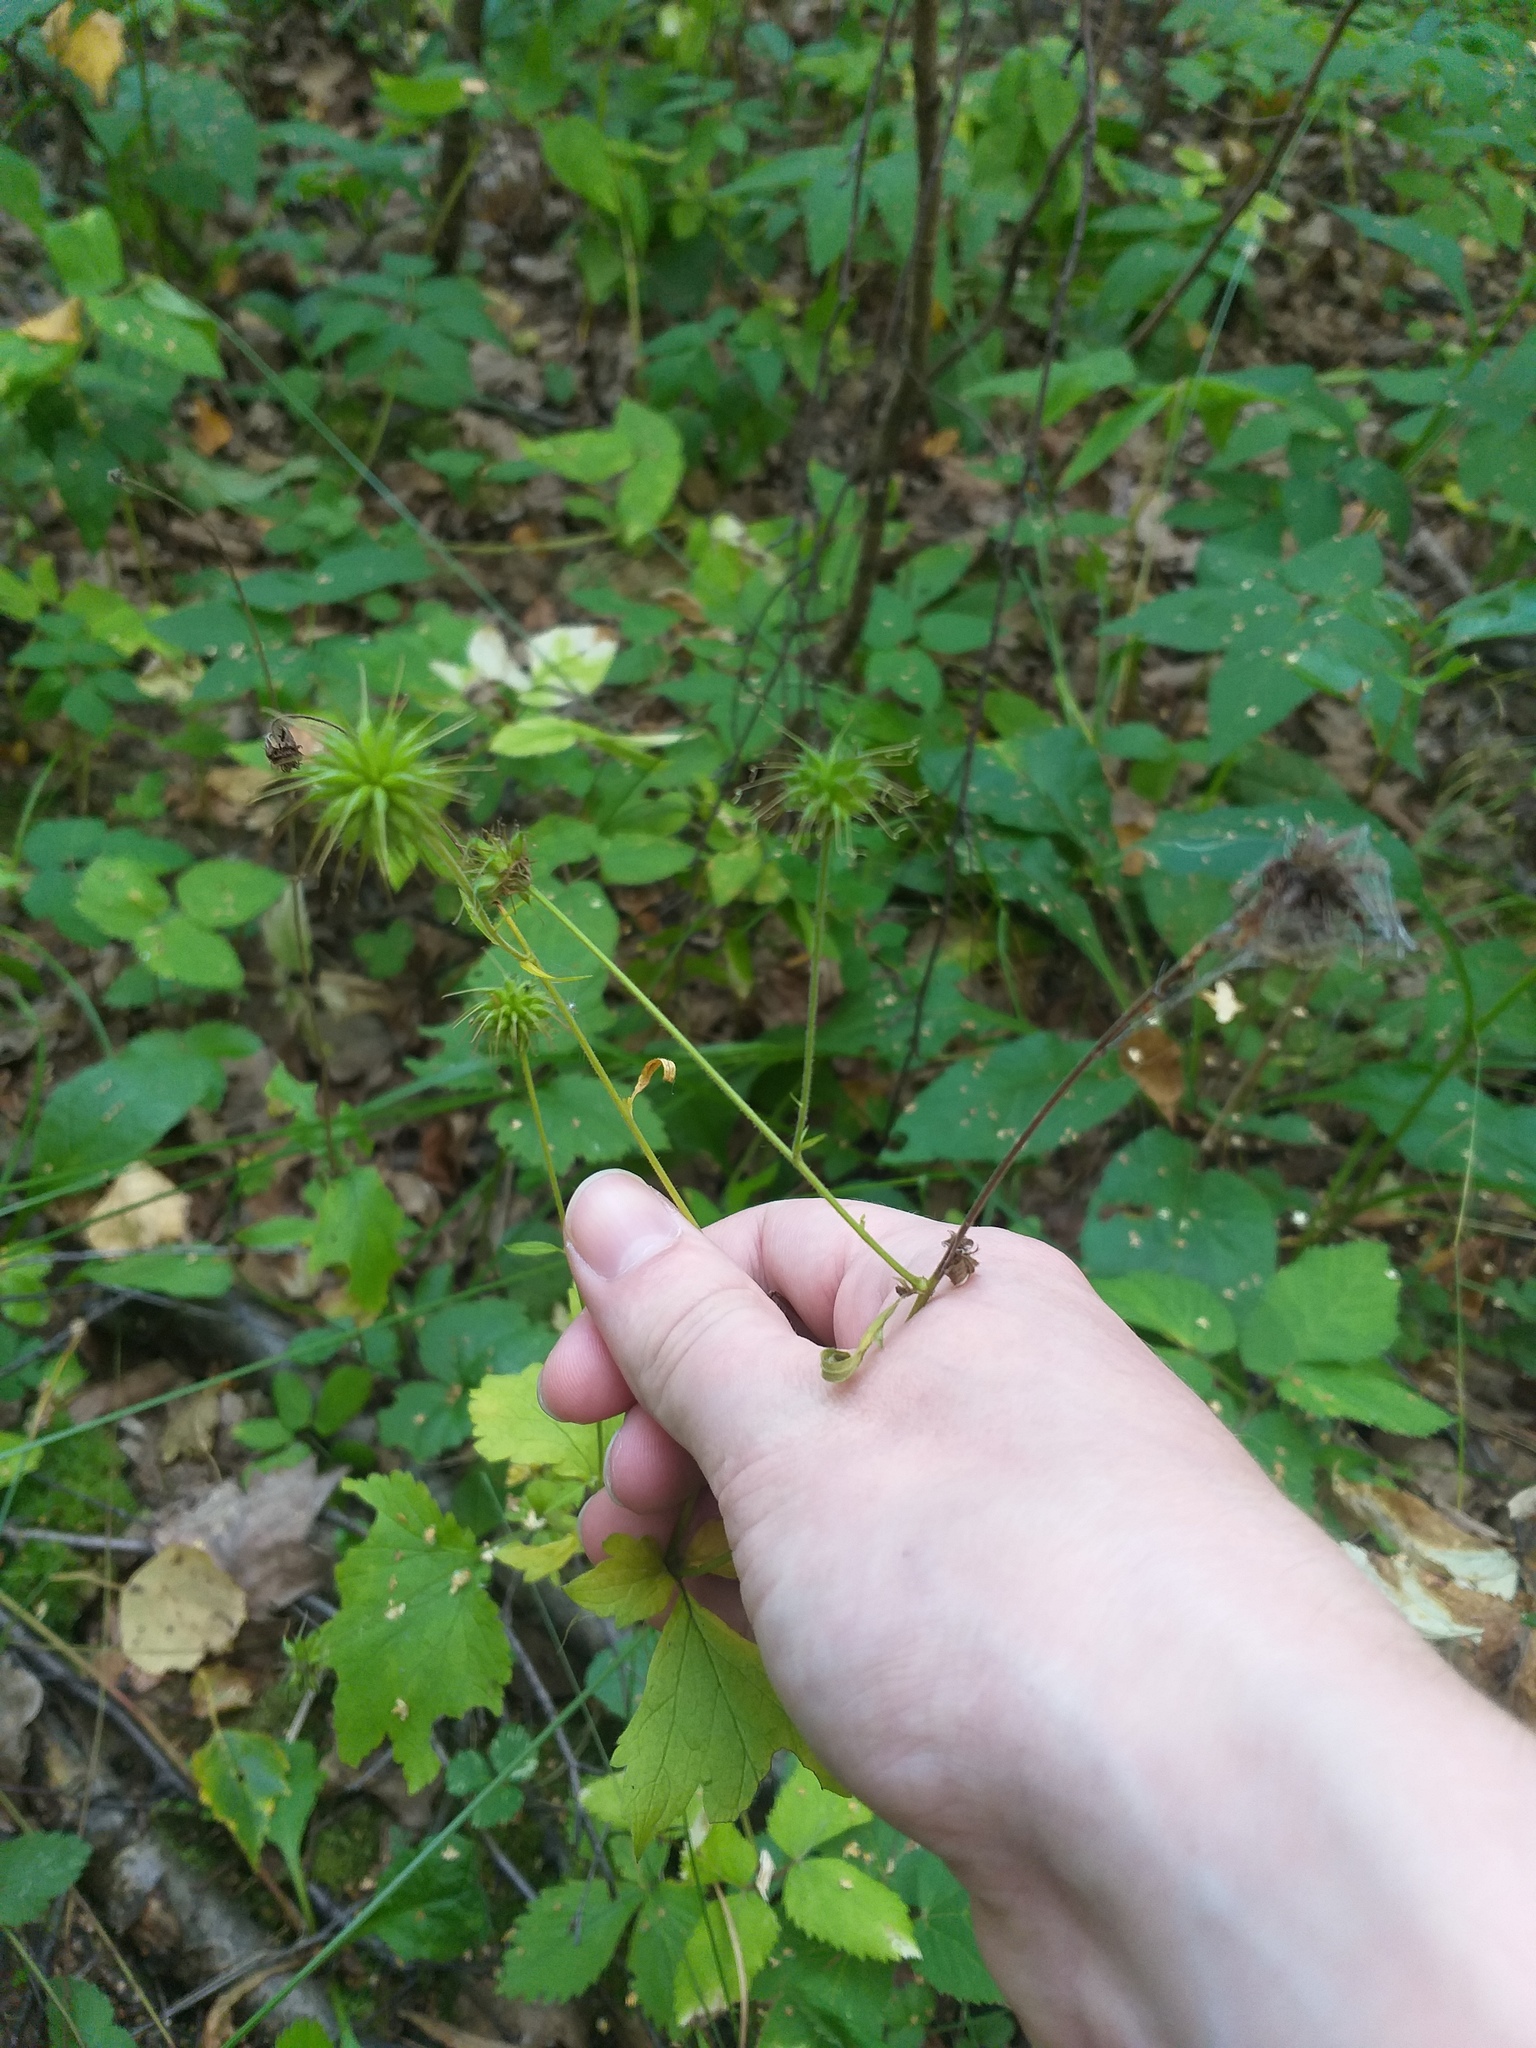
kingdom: Plantae
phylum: Tracheophyta
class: Magnoliopsida
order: Rosales
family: Rosaceae
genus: Geum
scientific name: Geum urbanum
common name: Wood avens
